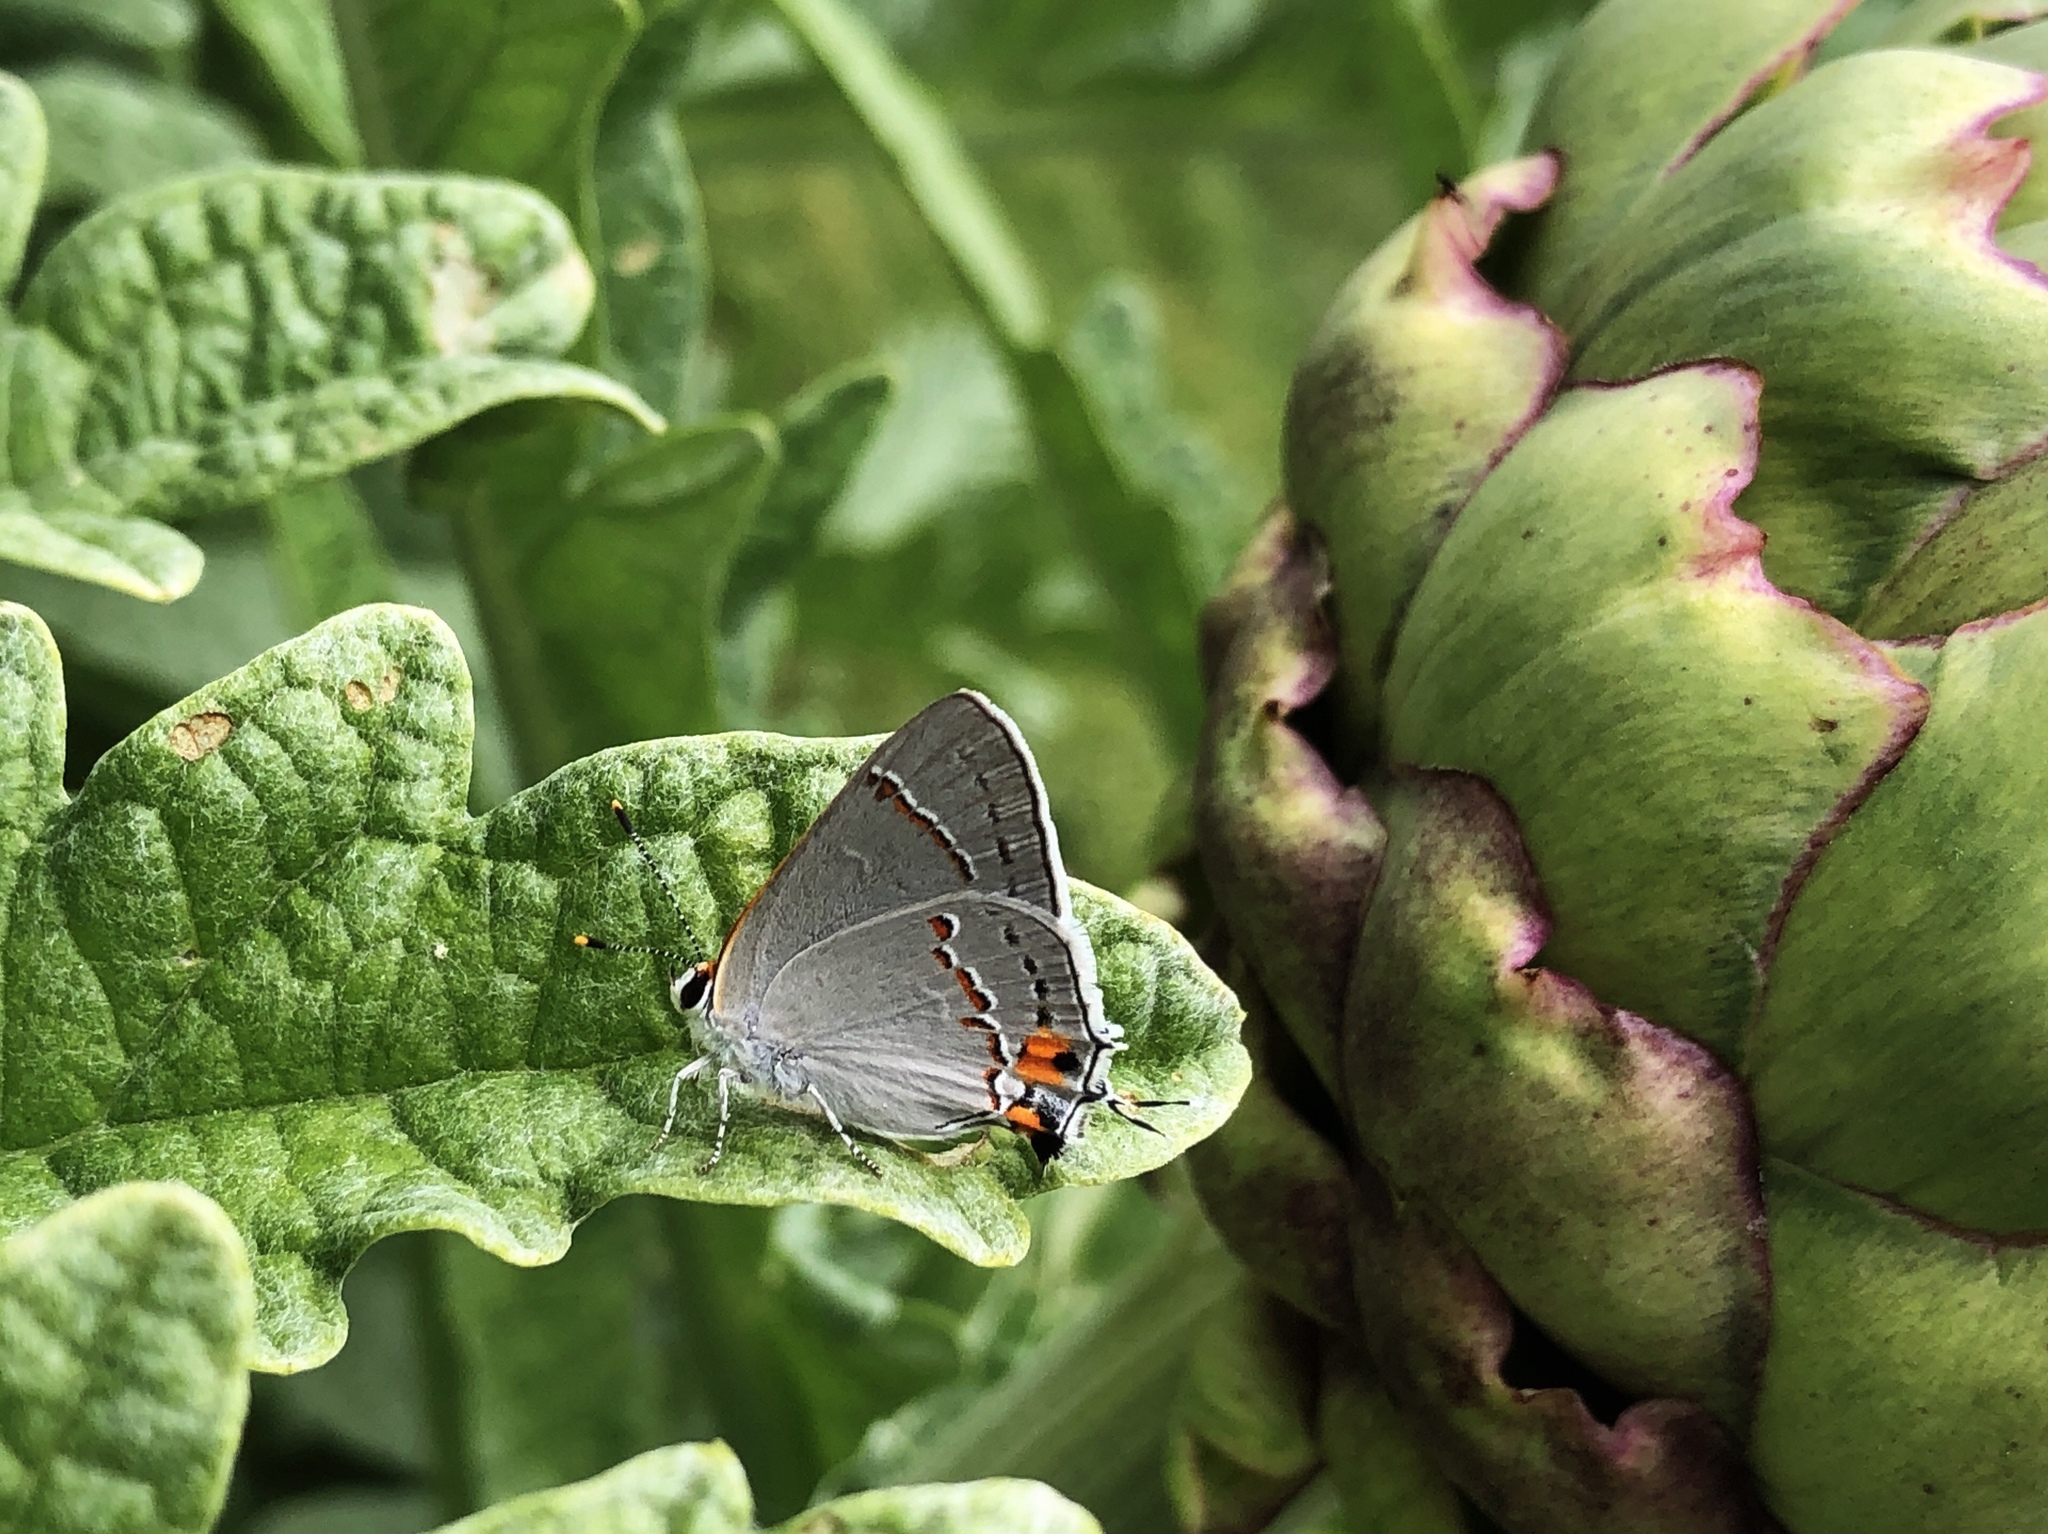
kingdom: Animalia
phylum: Arthropoda
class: Insecta
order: Lepidoptera
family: Lycaenidae
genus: Strymon
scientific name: Strymon melinus
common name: Gray hairstreak
